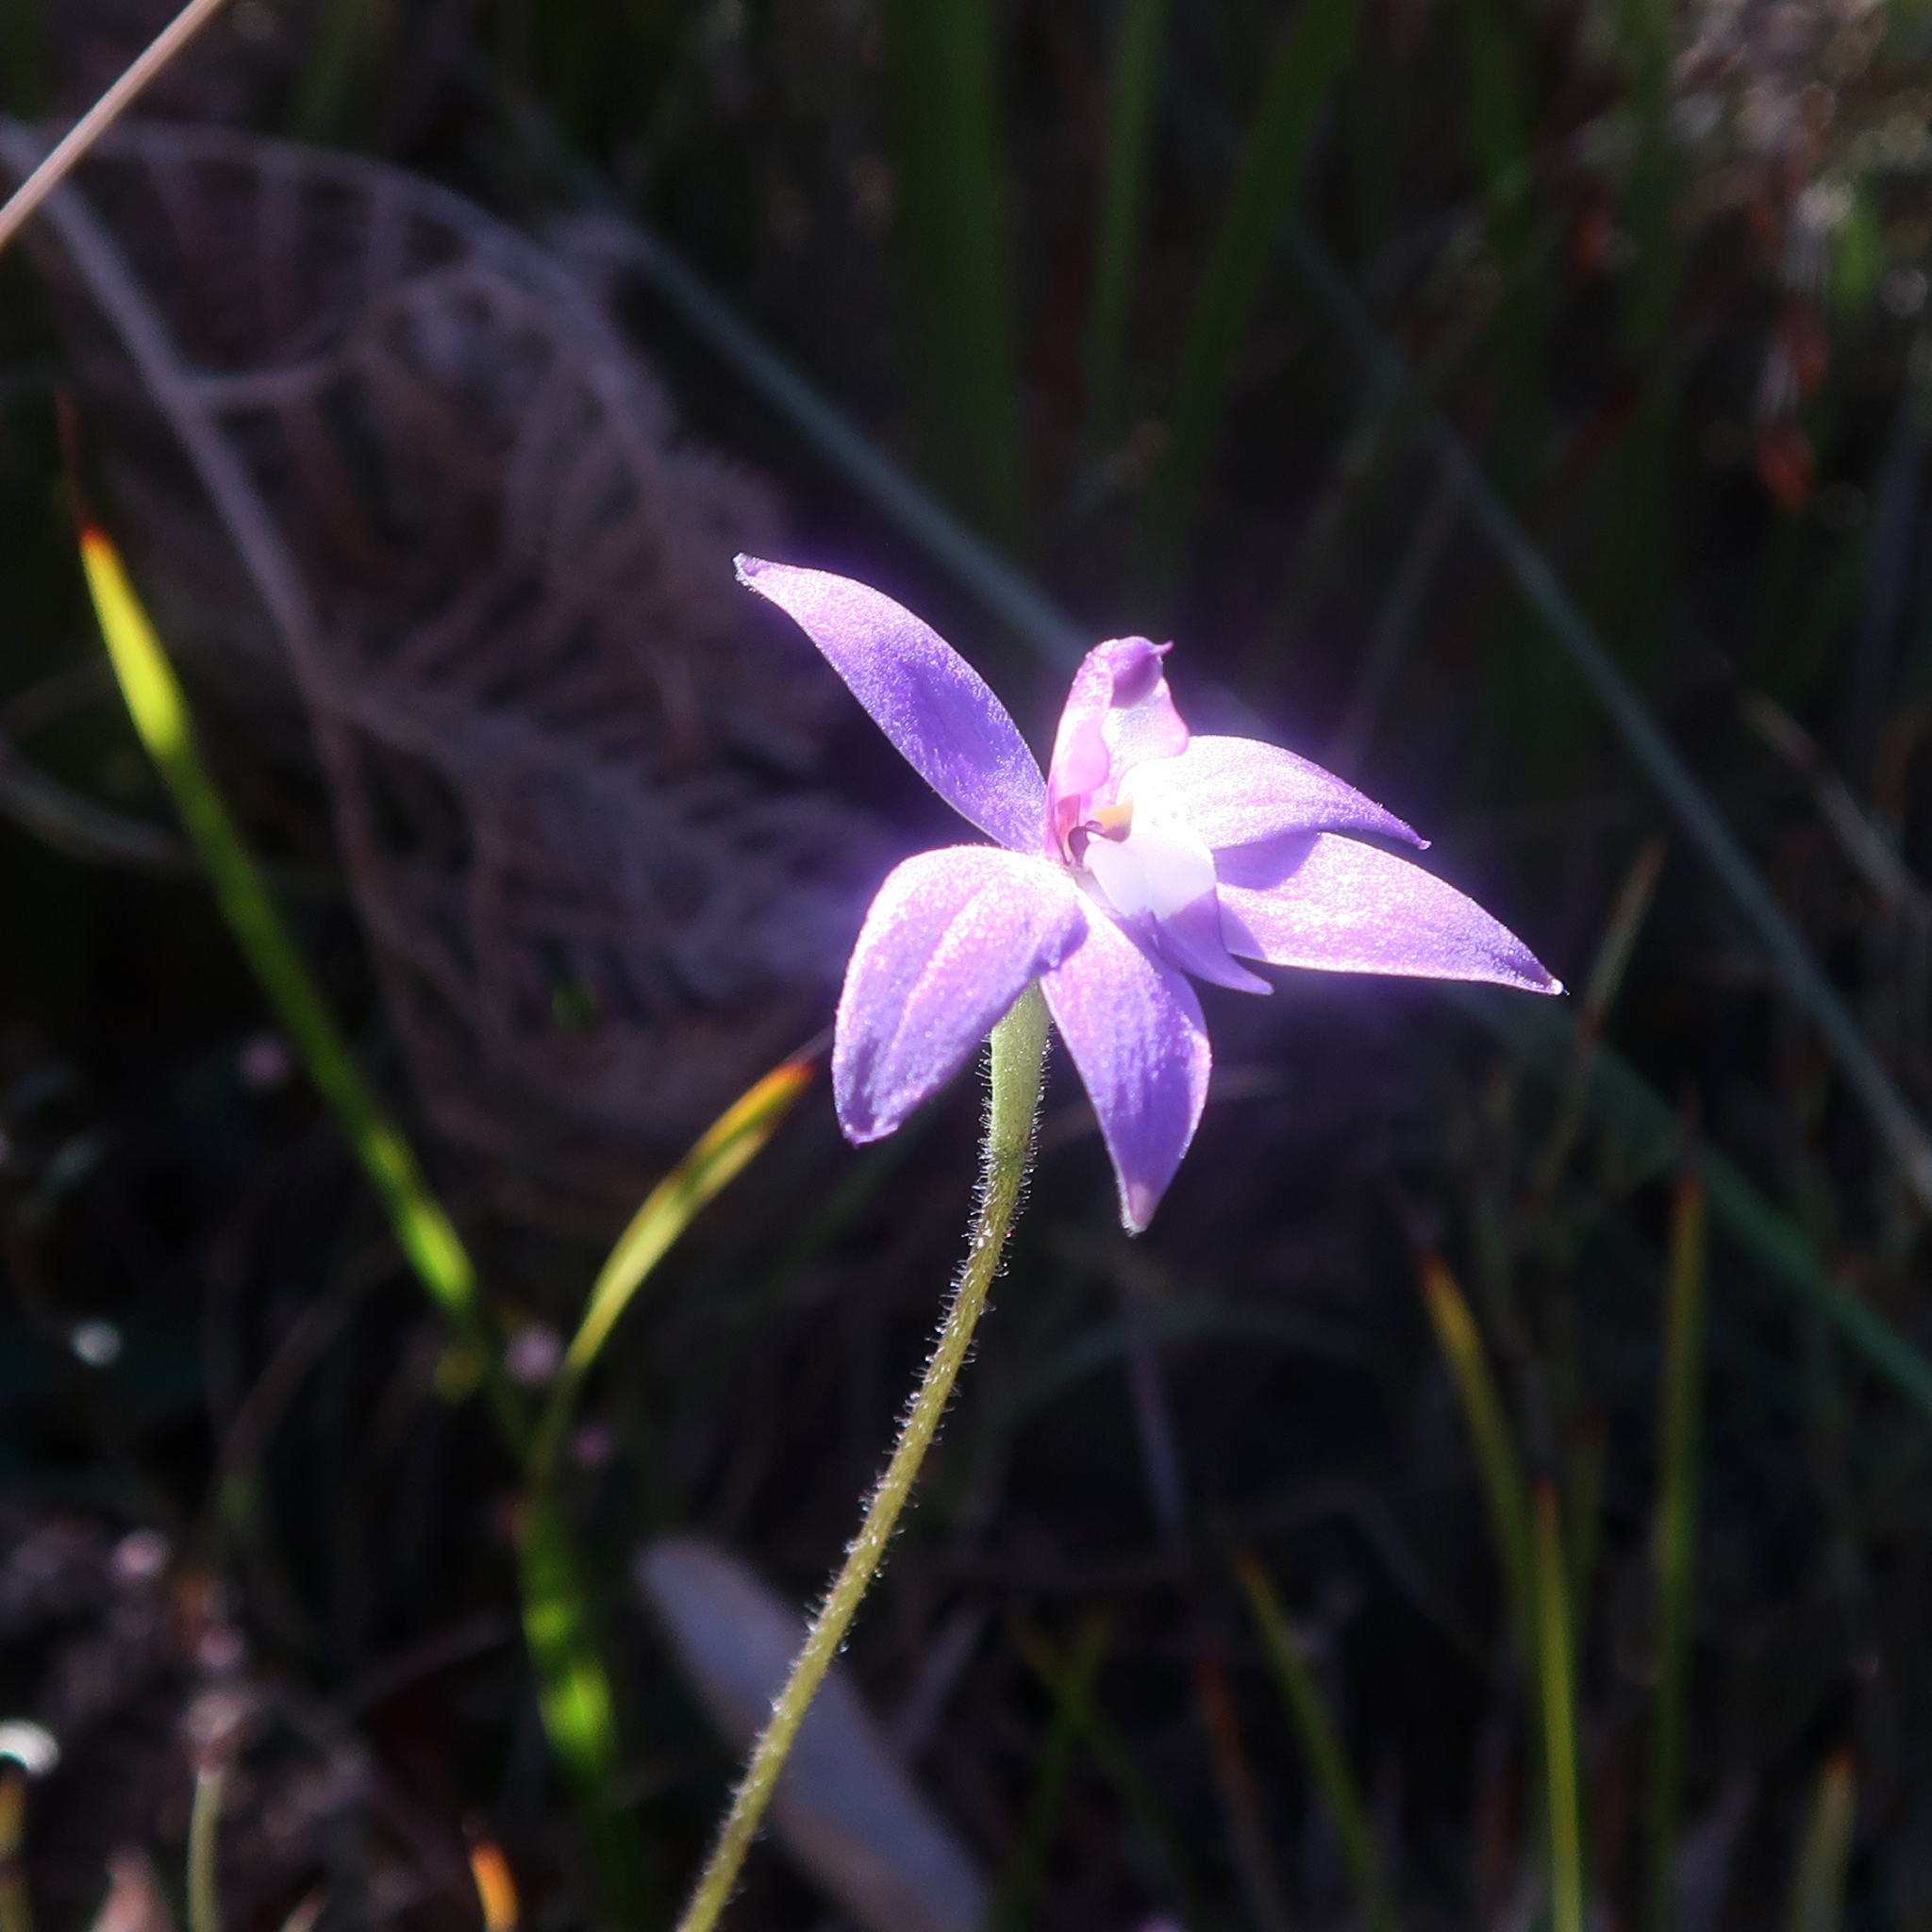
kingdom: Plantae
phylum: Tracheophyta
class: Liliopsida
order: Asparagales
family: Orchidaceae
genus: Caladenia
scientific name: Caladenia major
